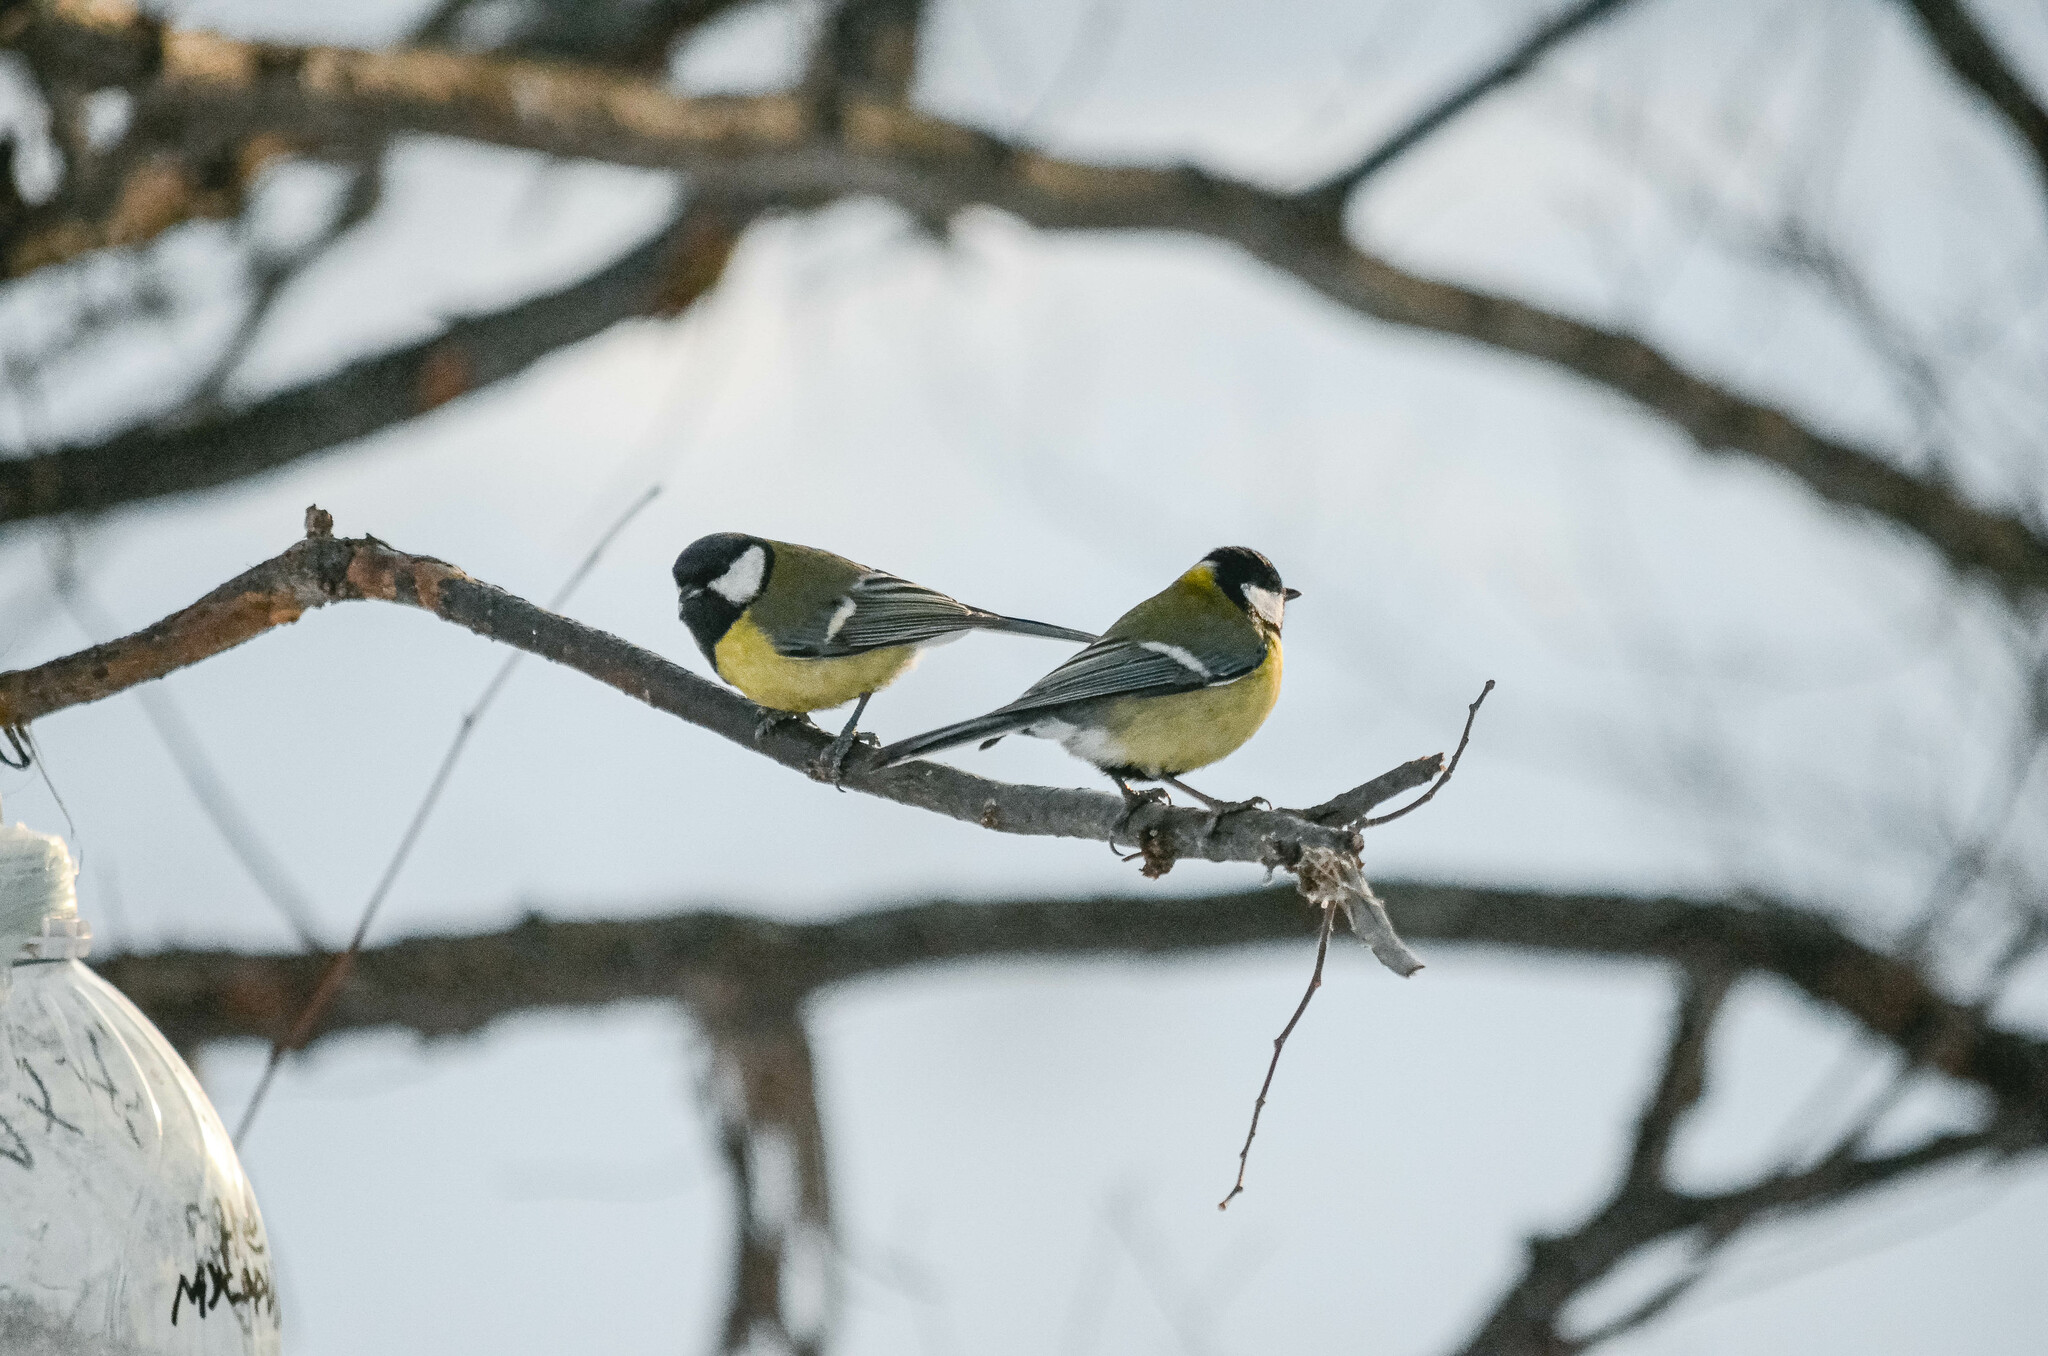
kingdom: Animalia
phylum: Chordata
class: Aves
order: Passeriformes
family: Paridae
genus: Parus
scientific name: Parus major
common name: Great tit
